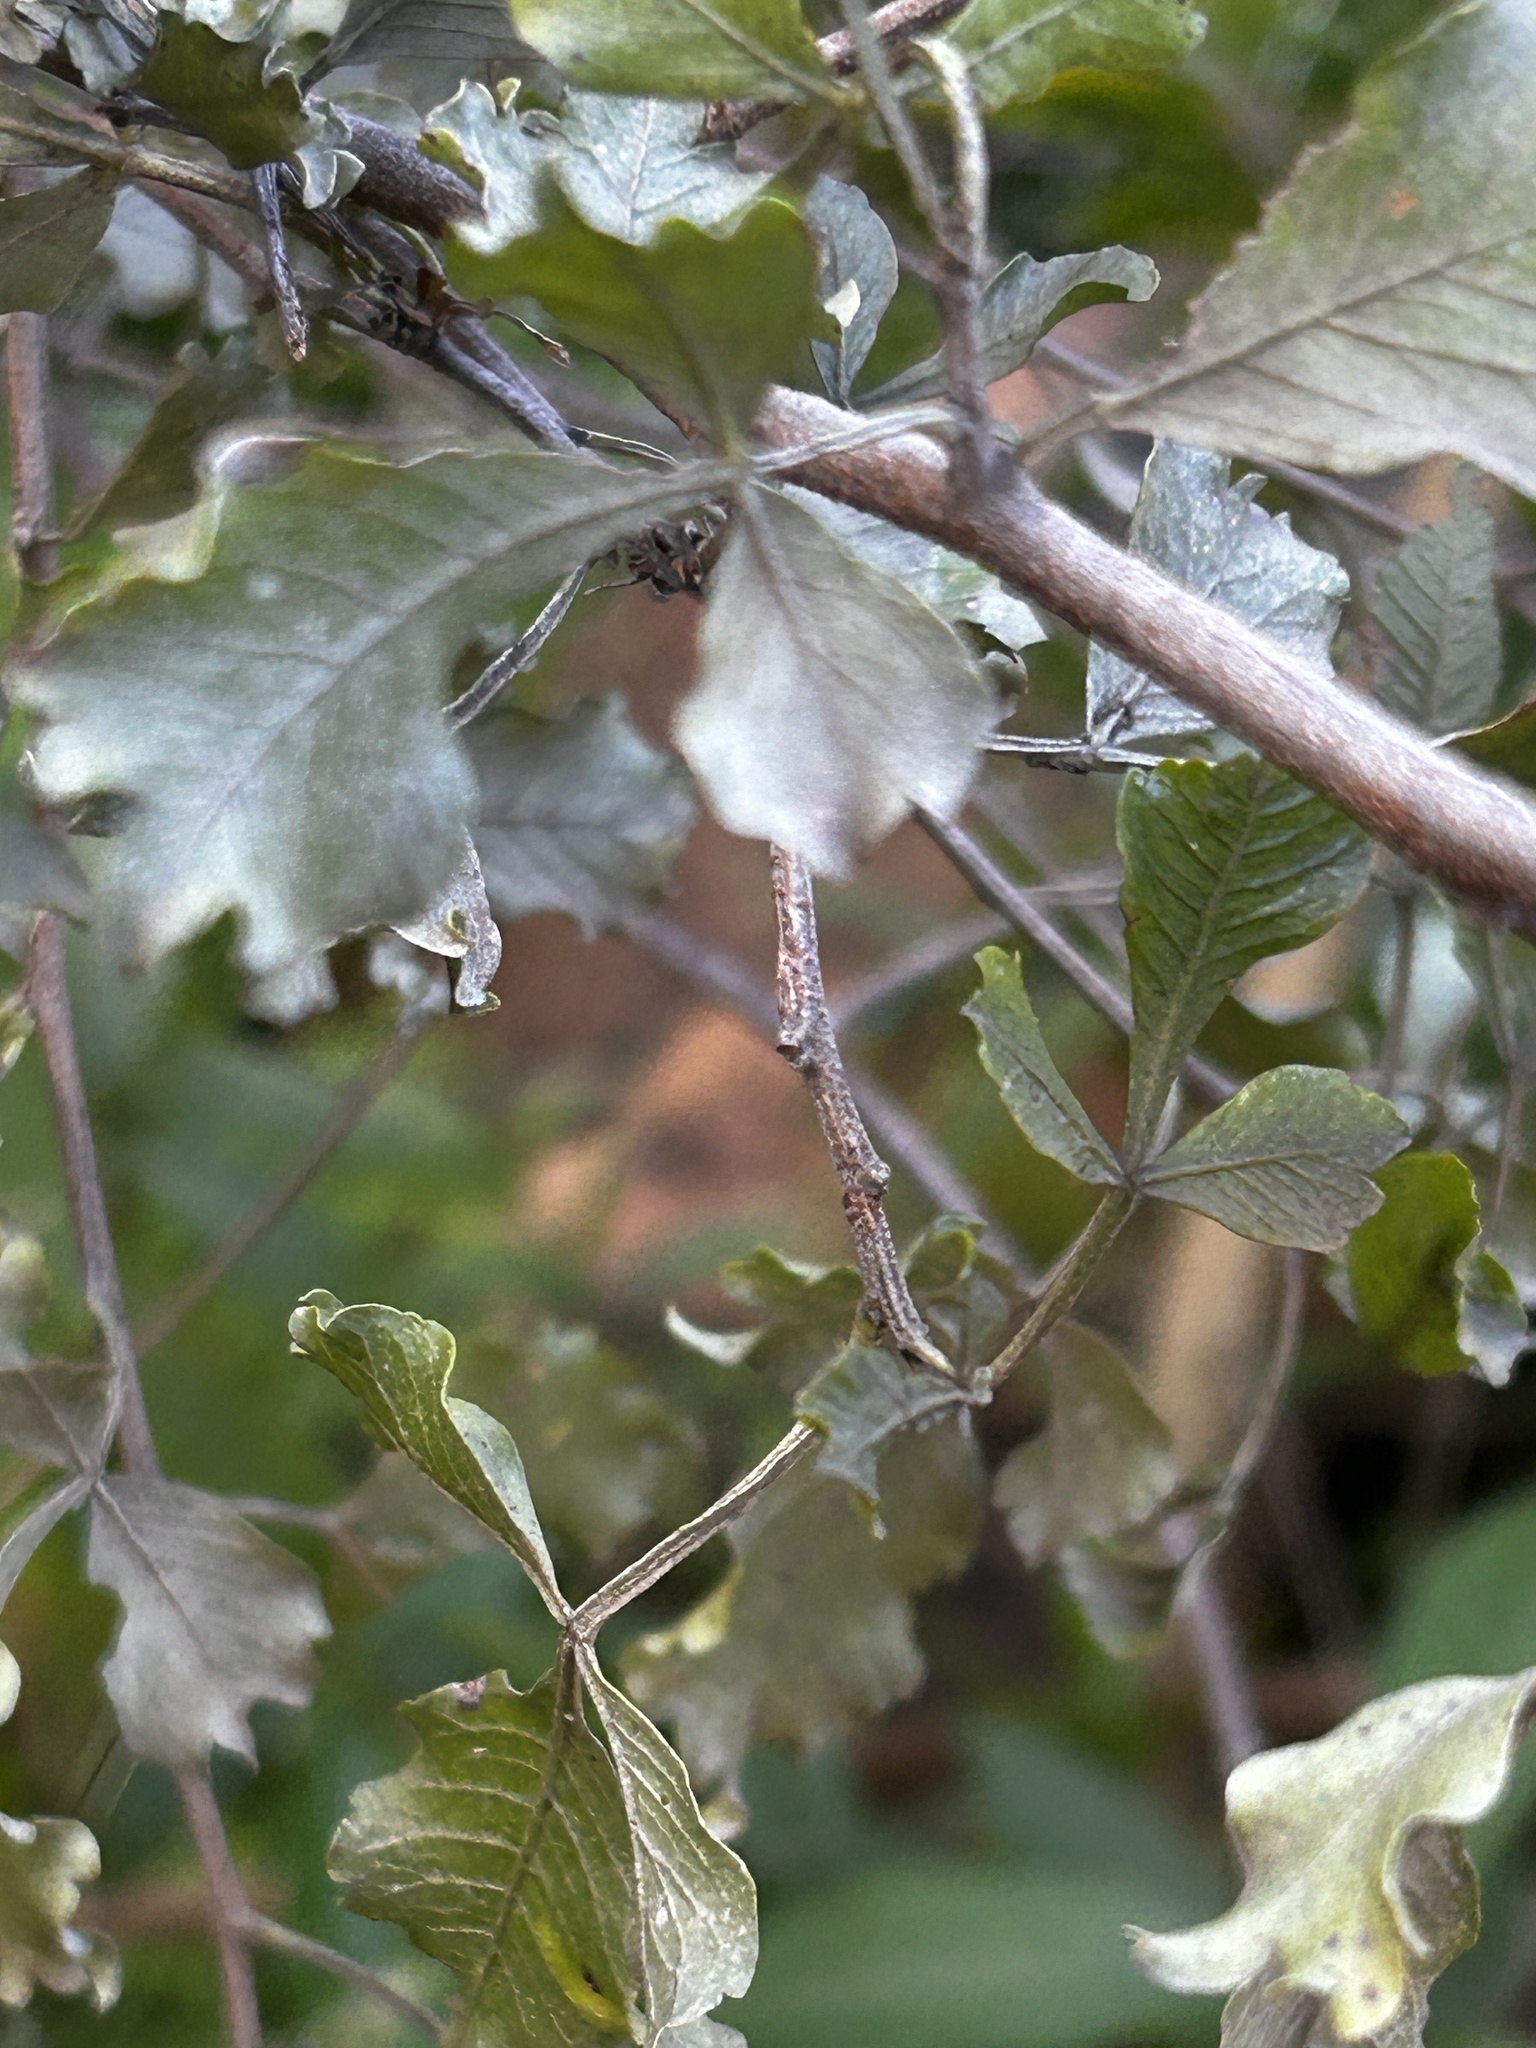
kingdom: Plantae
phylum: Tracheophyta
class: Magnoliopsida
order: Sapindales
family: Anacardiaceae
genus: Searsia
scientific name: Searsia undulata
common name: Namaqua kunibush
